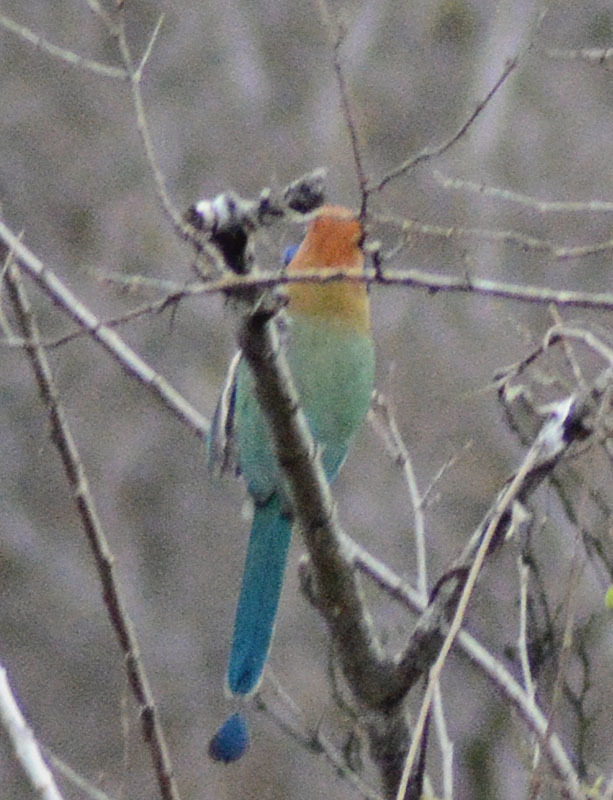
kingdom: Animalia
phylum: Chordata
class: Aves
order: Coraciiformes
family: Momotidae
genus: Momotus
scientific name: Momotus mexicanus
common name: Russet-crowned motmot
